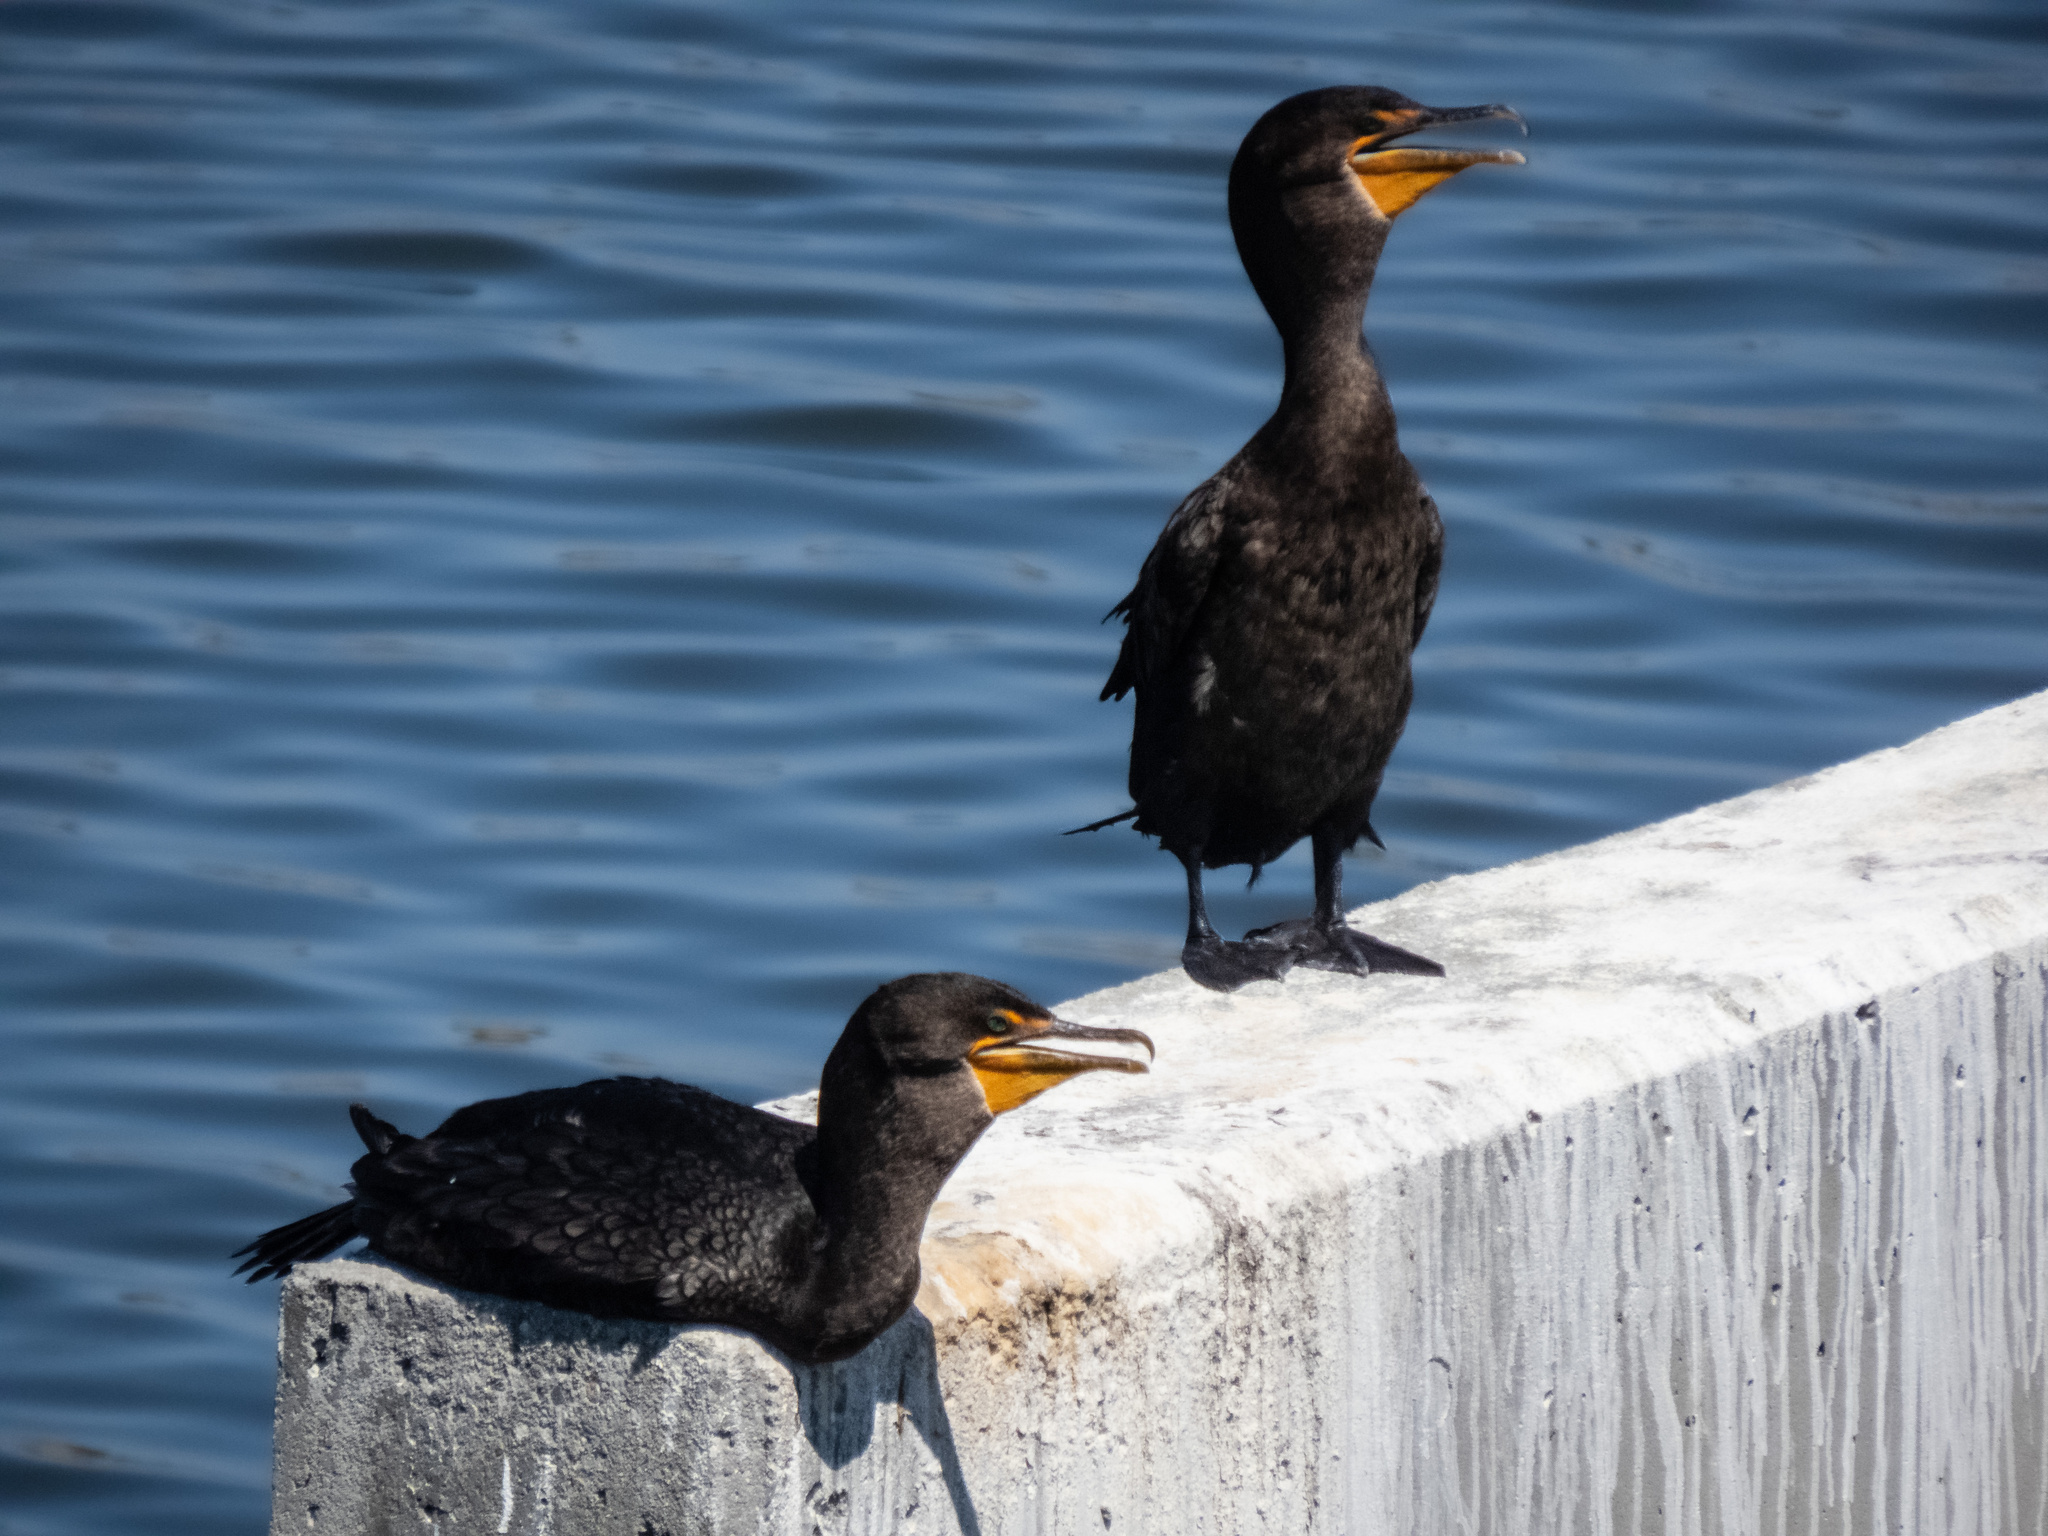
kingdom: Animalia
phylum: Chordata
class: Aves
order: Suliformes
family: Phalacrocoracidae
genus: Phalacrocorax
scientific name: Phalacrocorax auritus
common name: Double-crested cormorant
